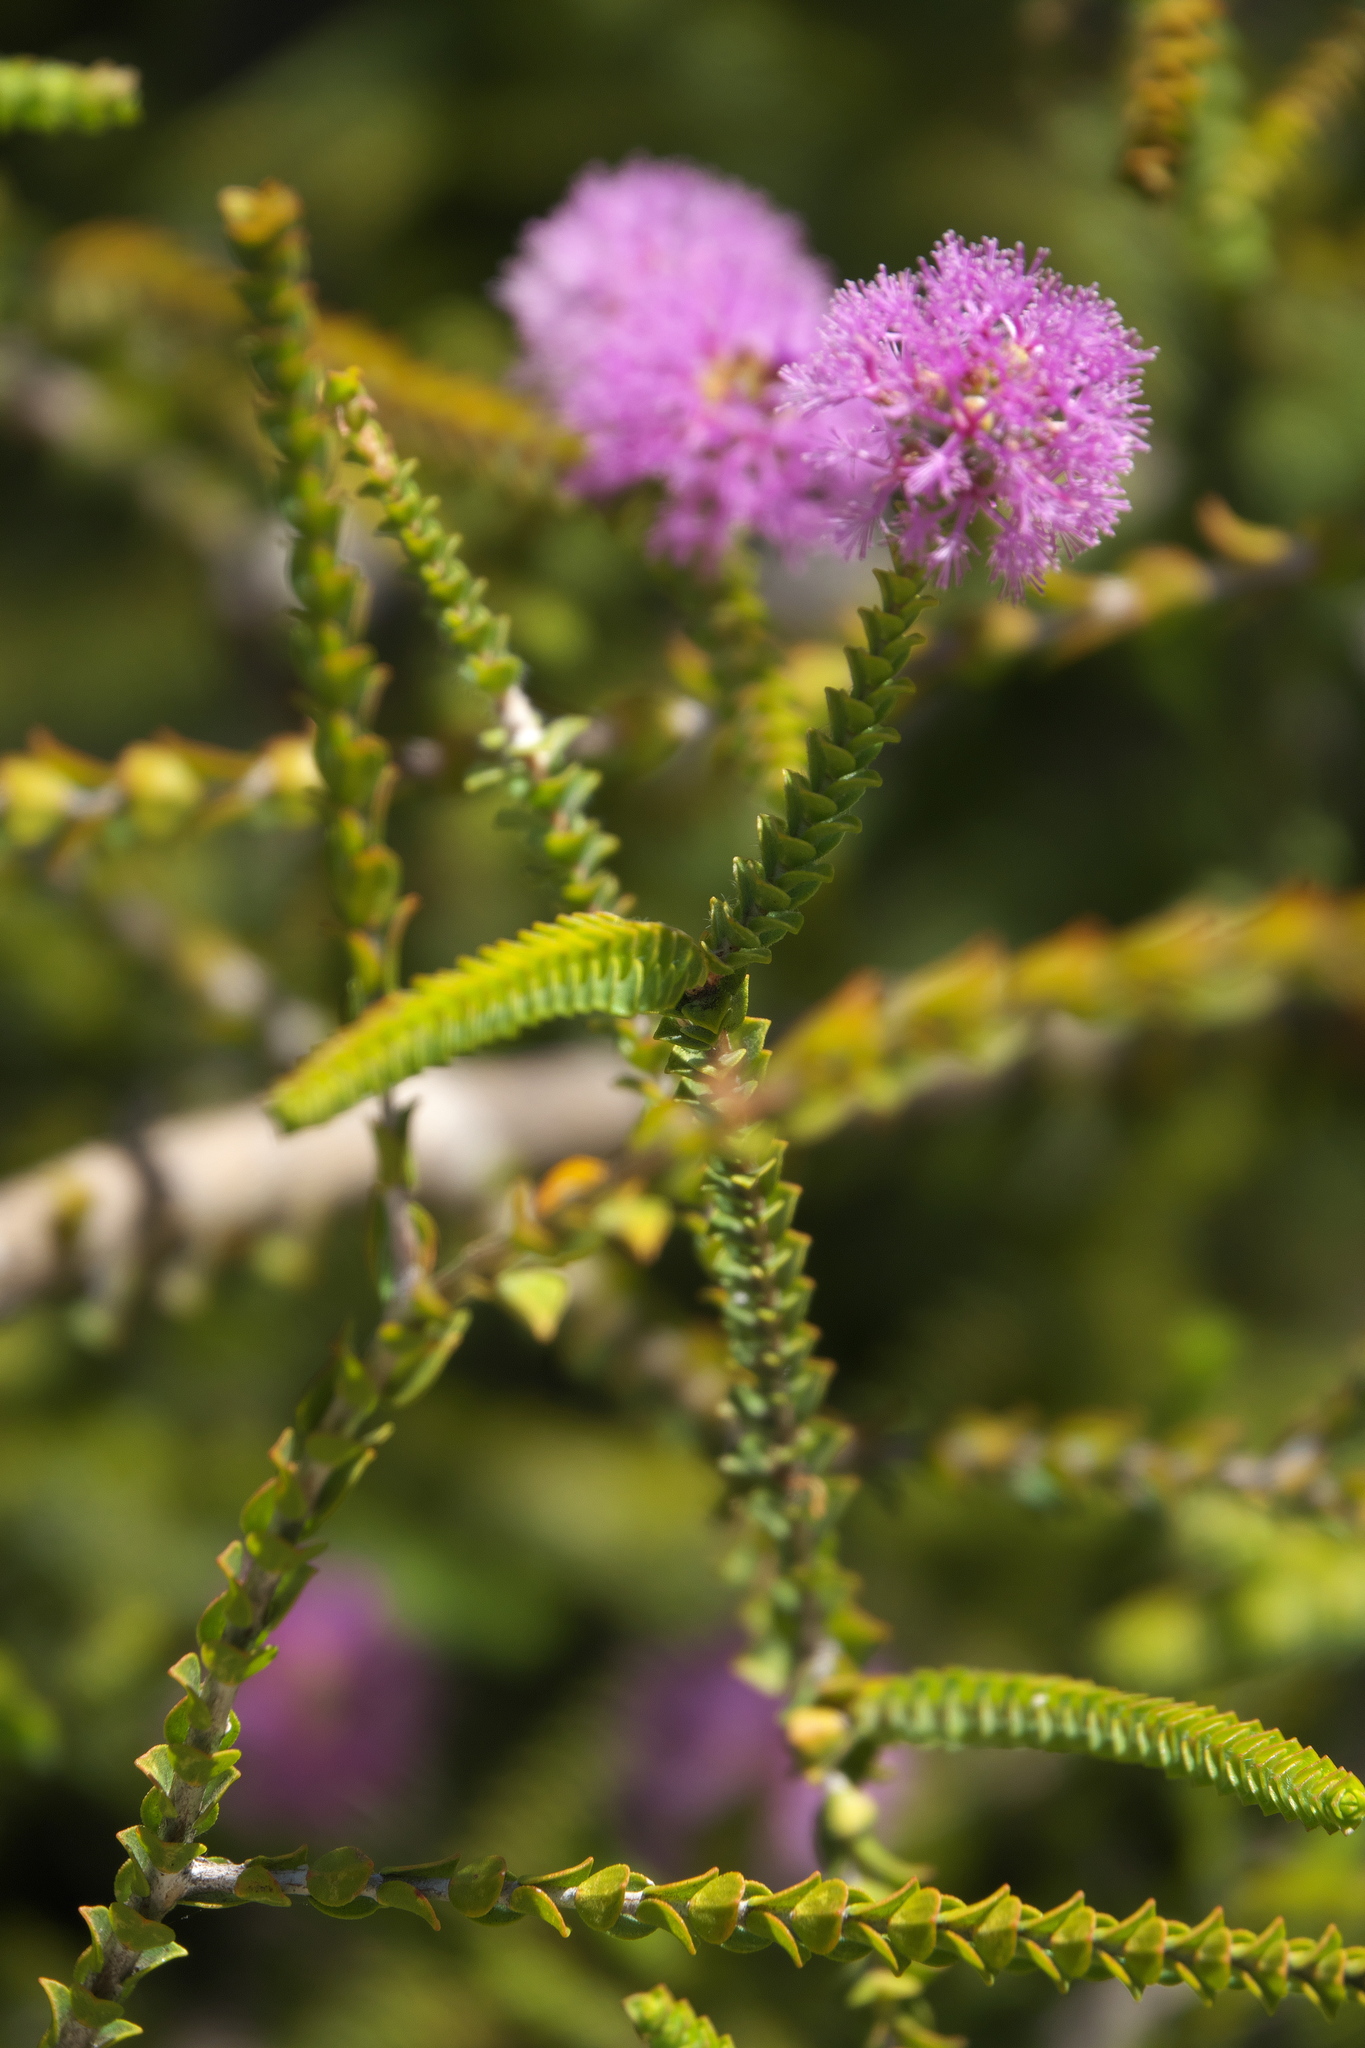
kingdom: Plantae
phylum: Tracheophyta
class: Magnoliopsida
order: Myrtales
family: Myrtaceae
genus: Melaleuca
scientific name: Melaleuca crossota
